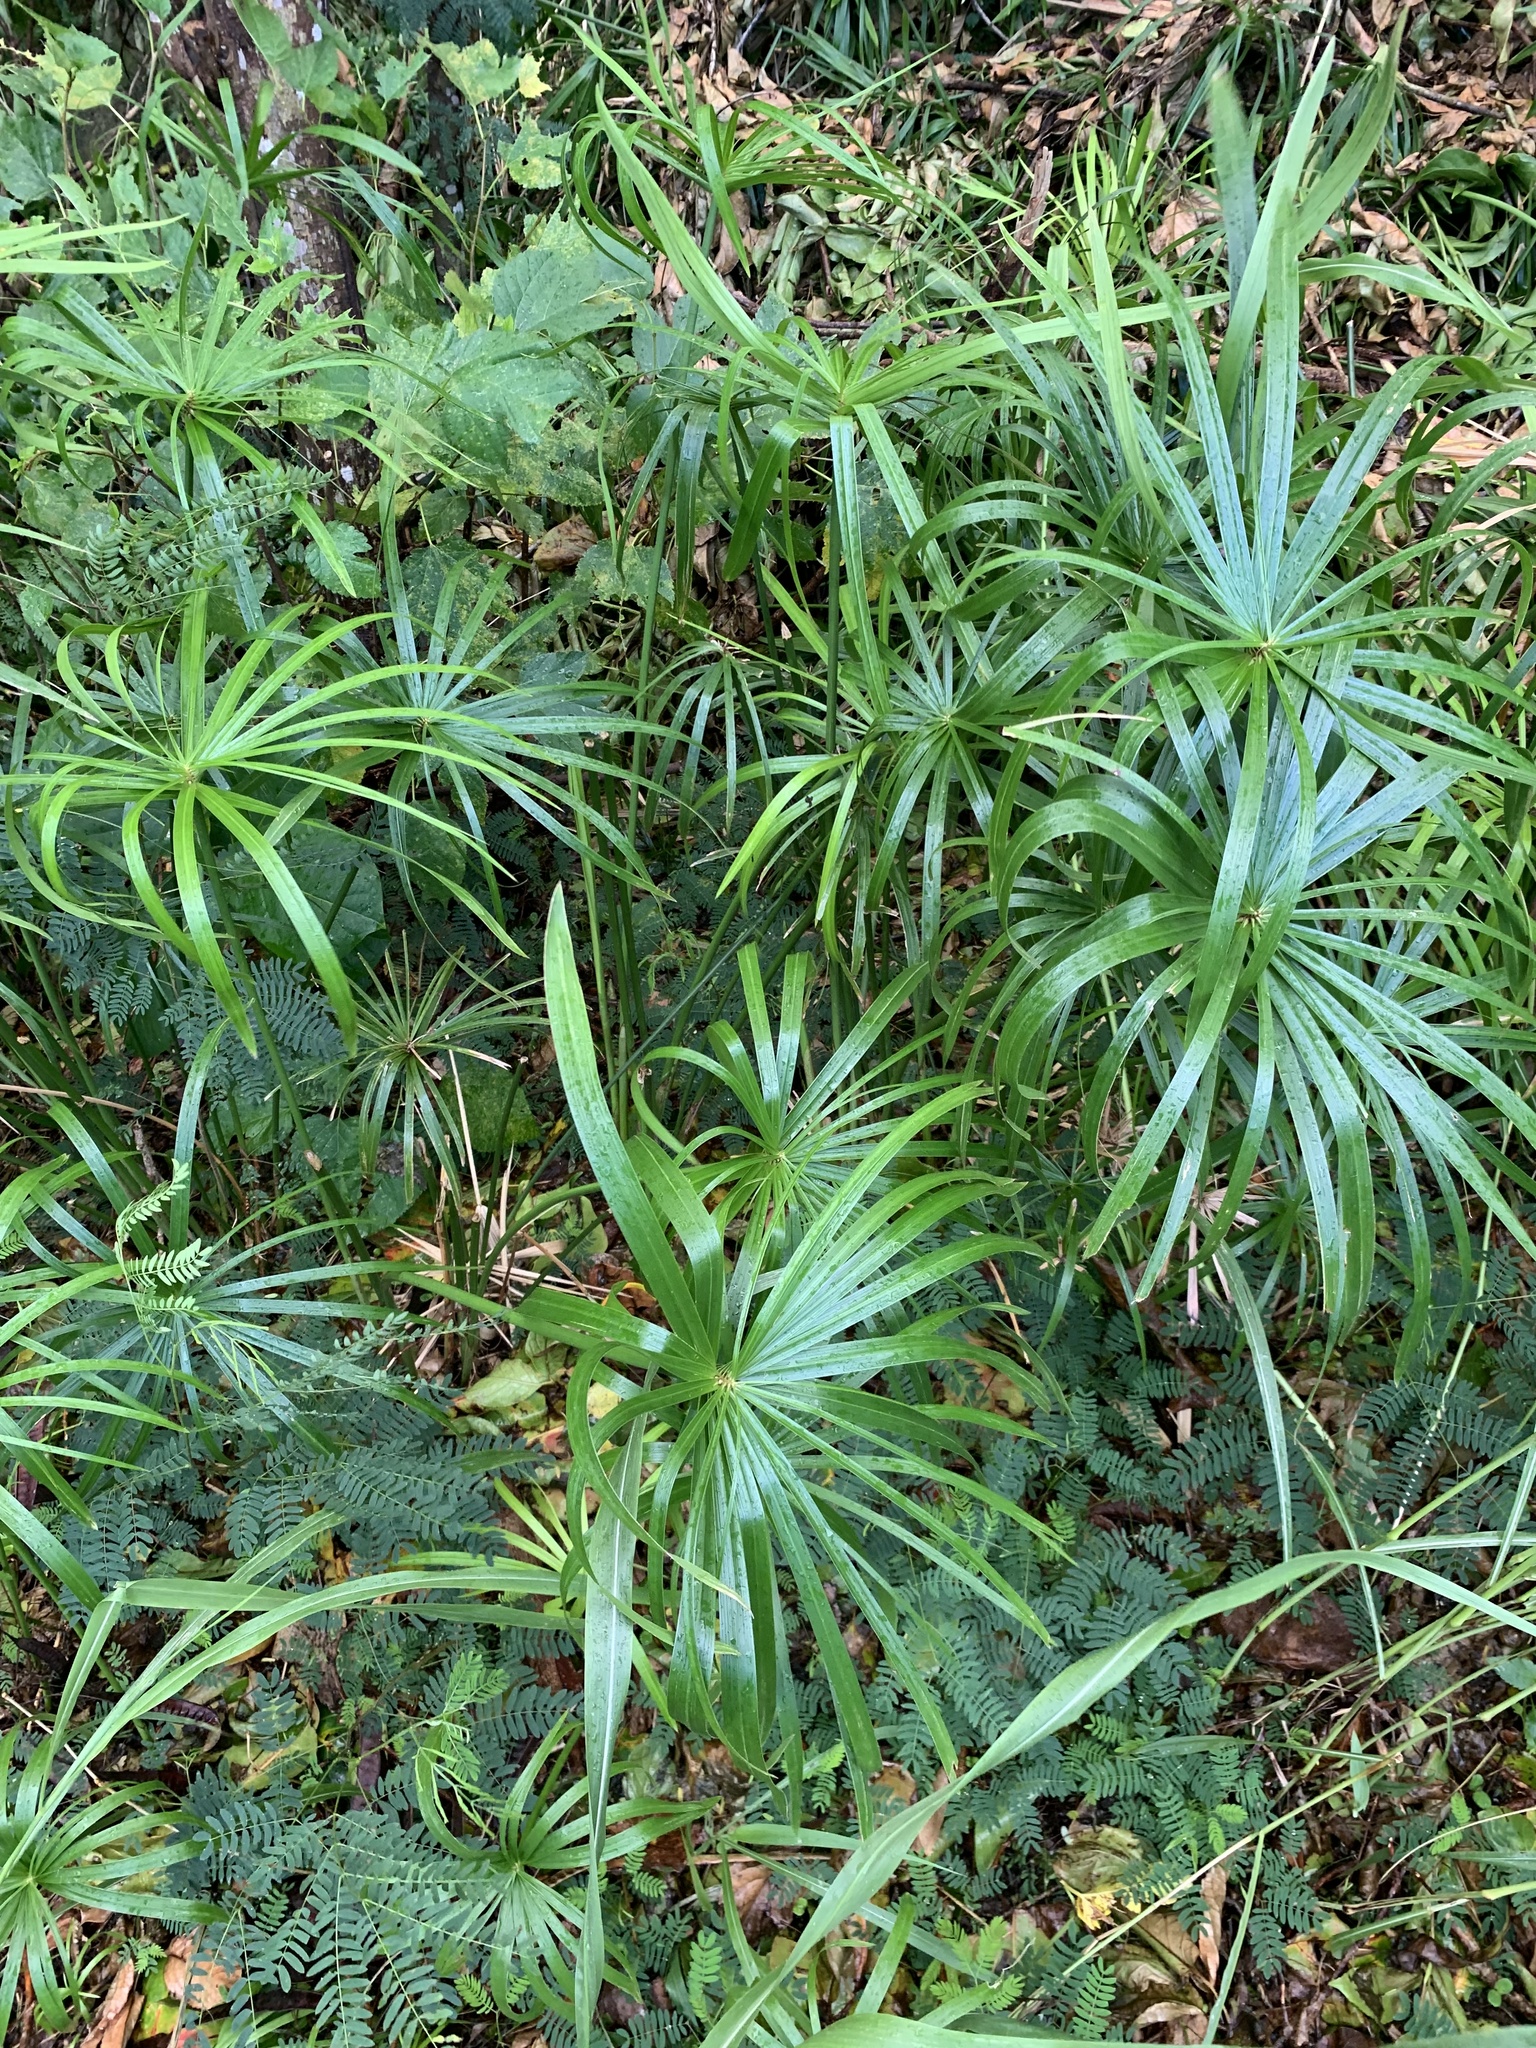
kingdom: Plantae
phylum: Tracheophyta
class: Liliopsida
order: Poales
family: Cyperaceae
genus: Cyperus
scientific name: Cyperus alternifolius
